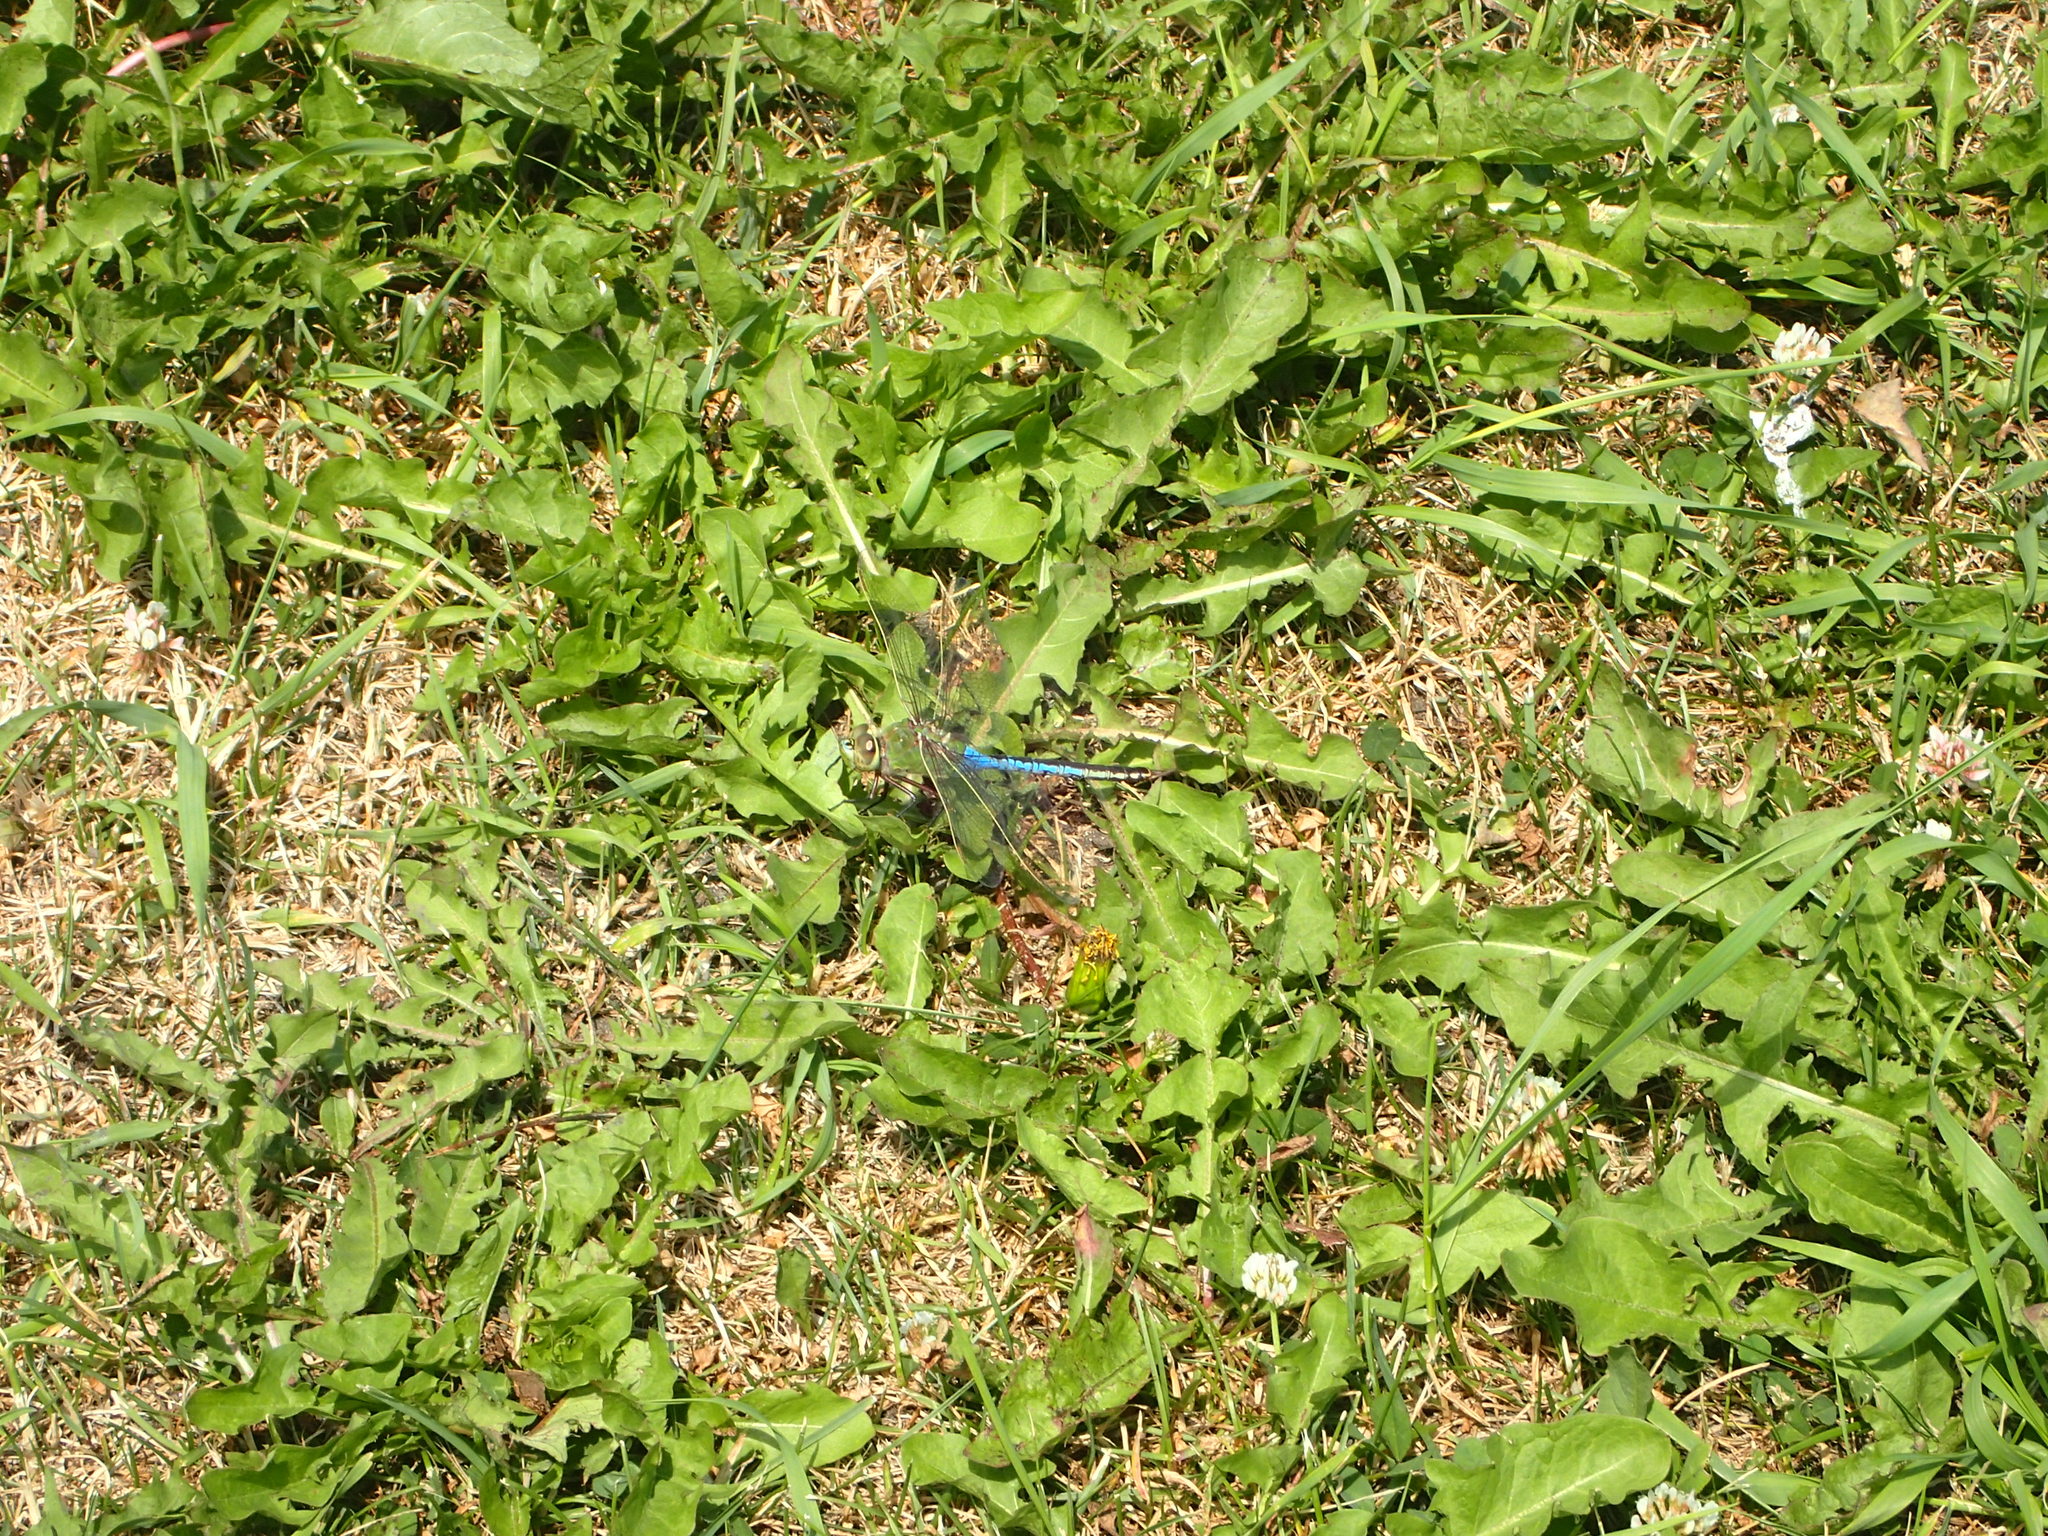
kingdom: Animalia
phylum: Arthropoda
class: Insecta
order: Odonata
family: Aeshnidae
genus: Anax
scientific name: Anax junius
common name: Common green darner
